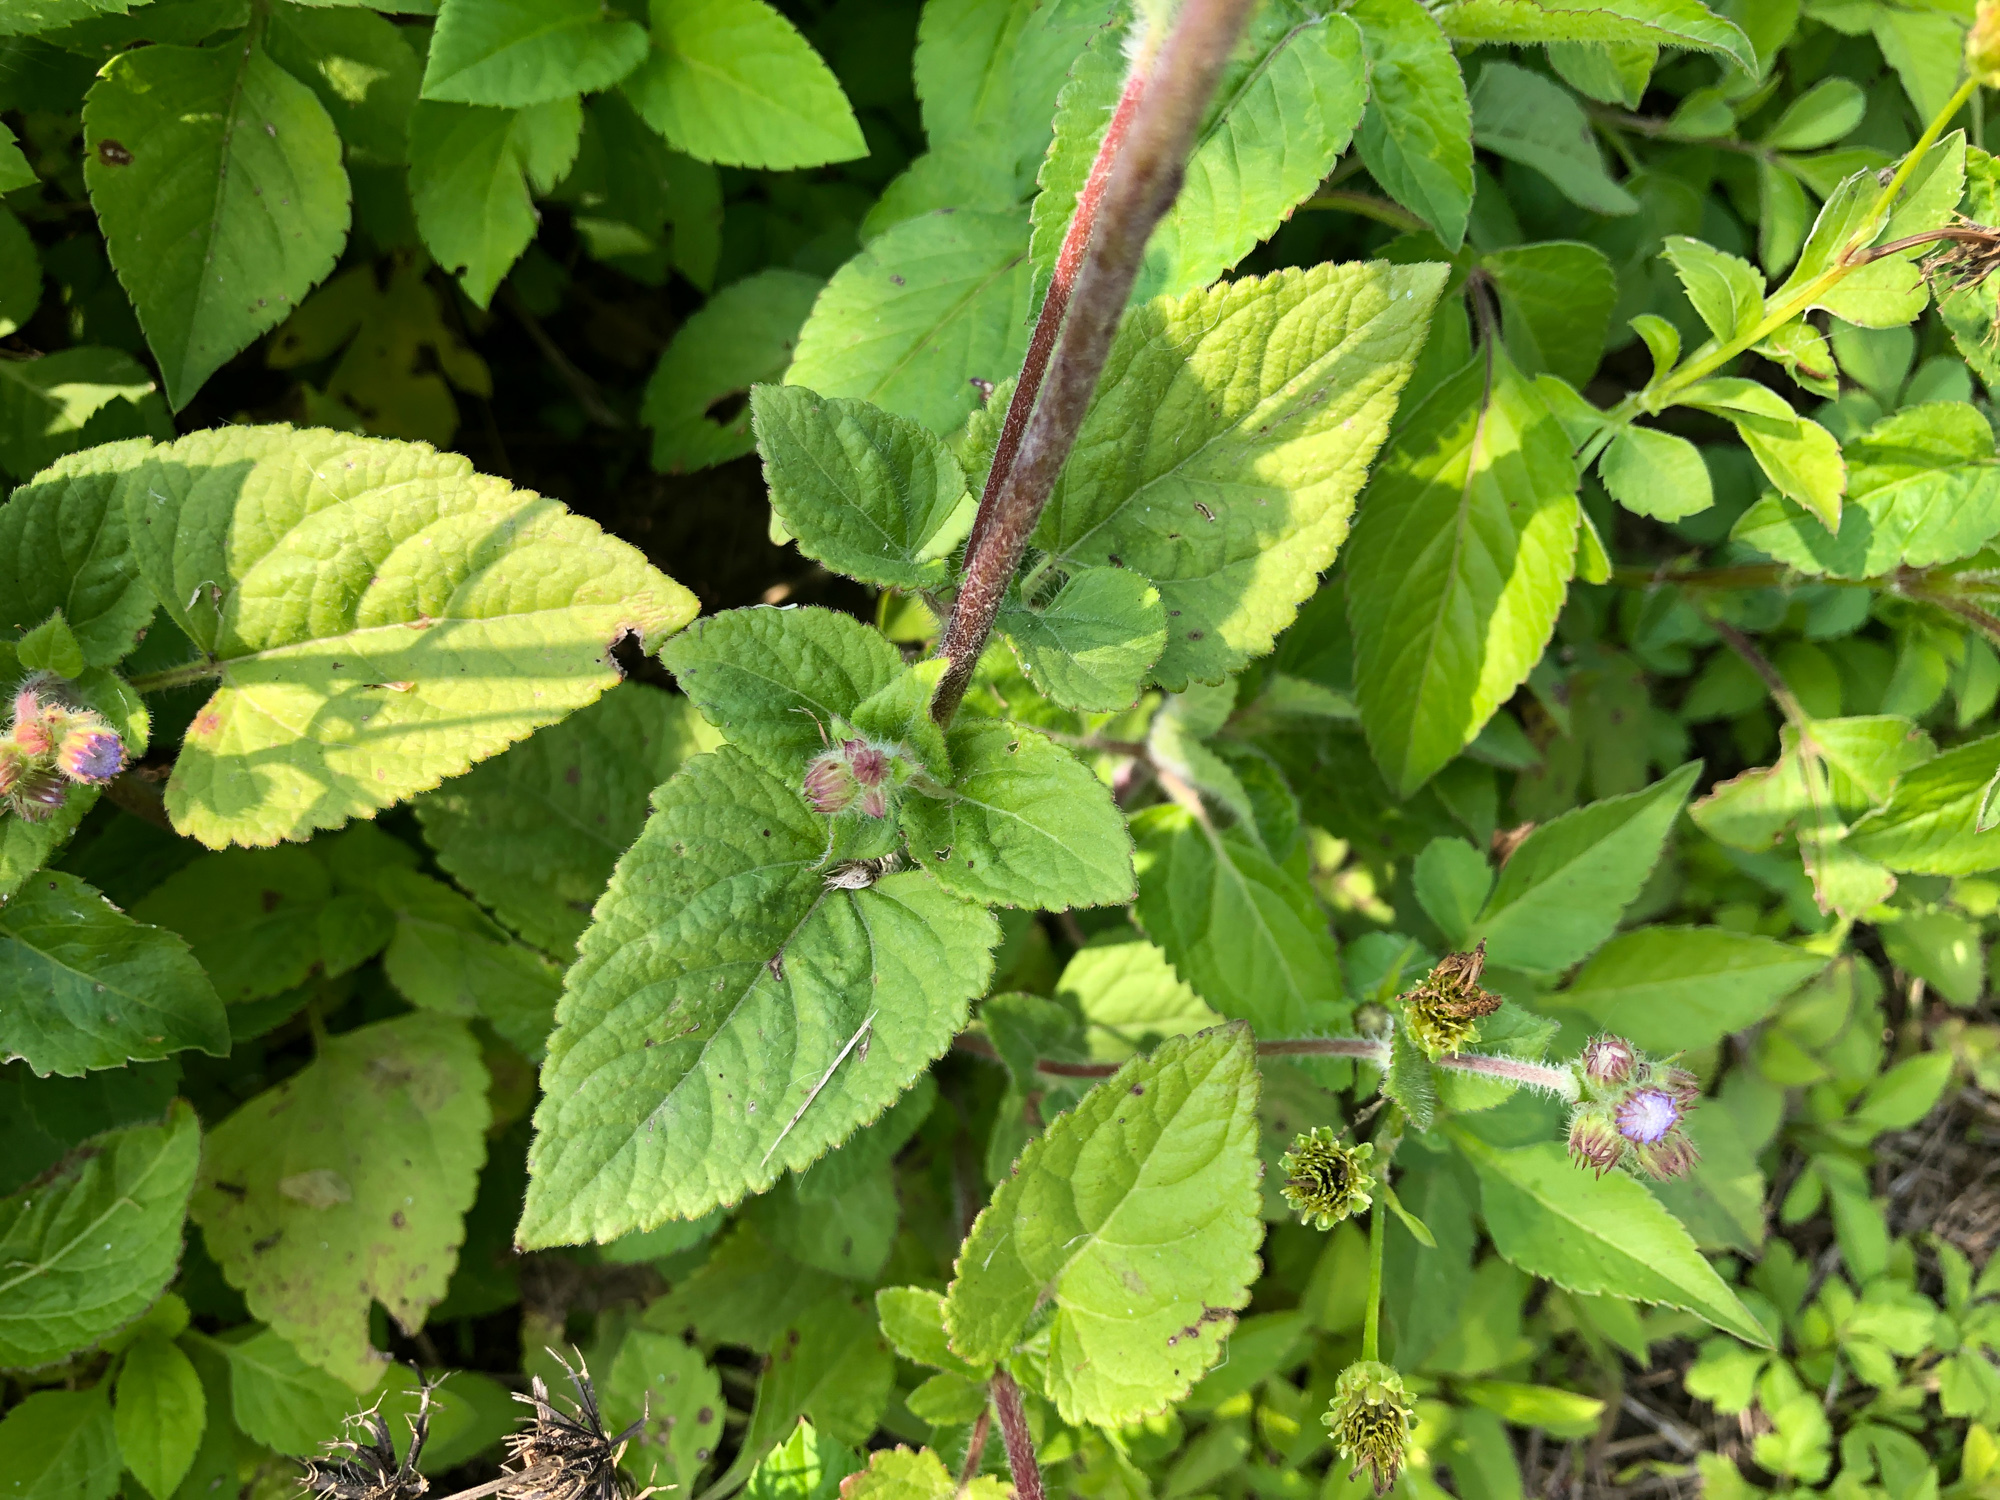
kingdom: Plantae
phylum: Tracheophyta
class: Magnoliopsida
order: Asterales
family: Asteraceae
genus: Ageratum
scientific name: Ageratum houstonianum
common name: Bluemink
